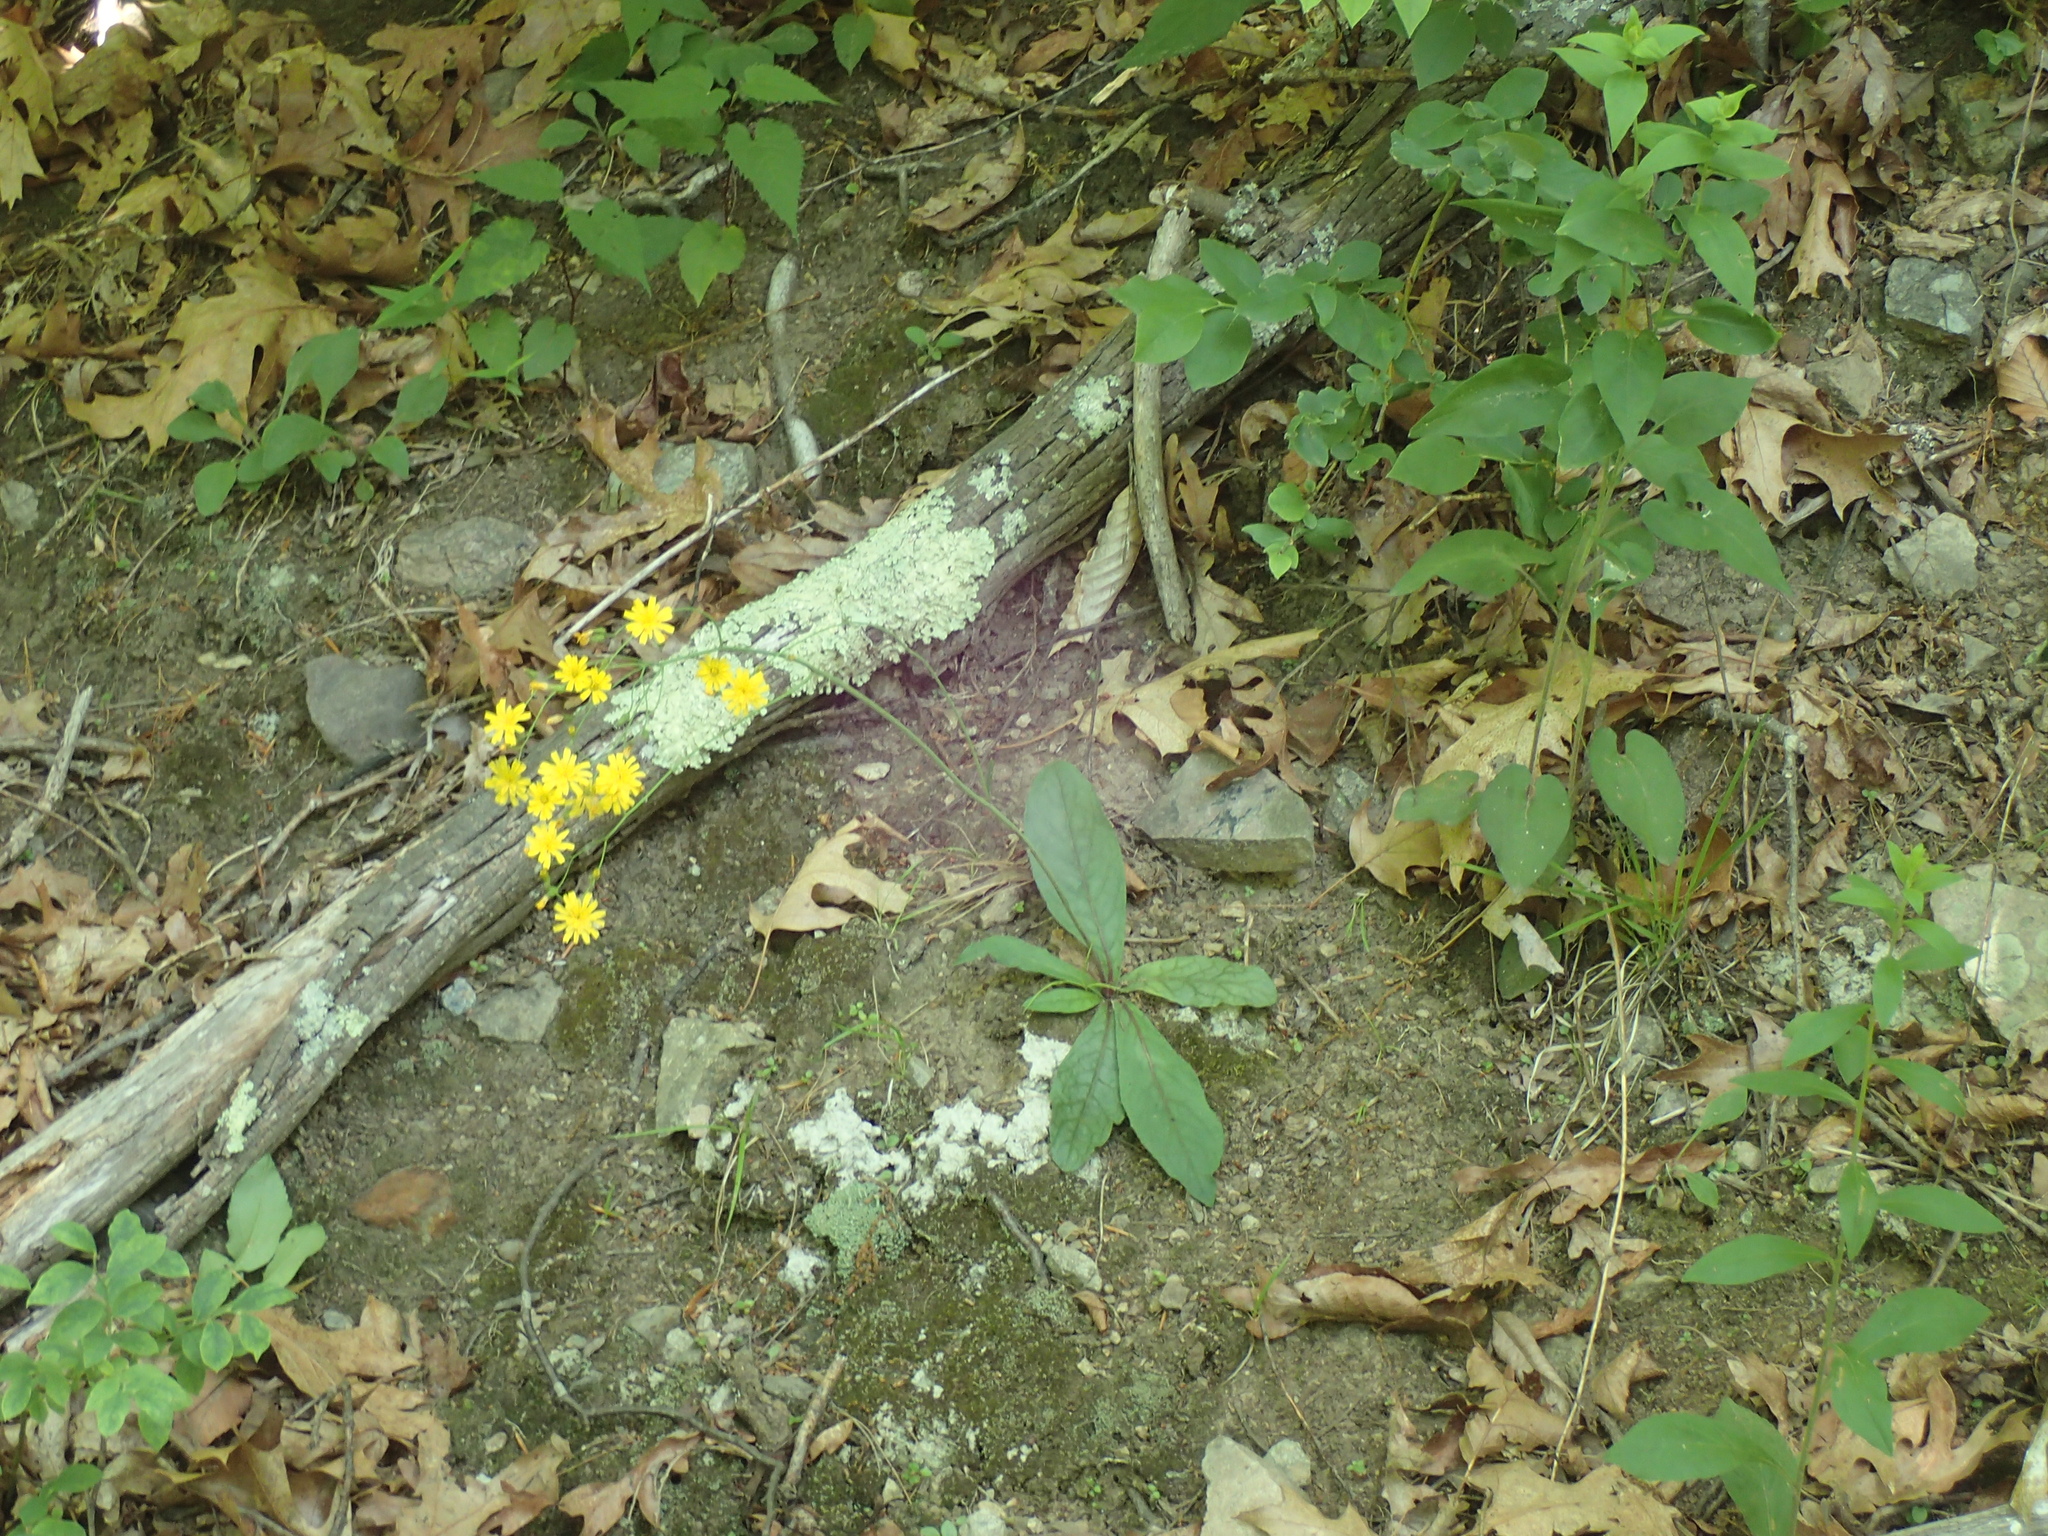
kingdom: Plantae
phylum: Tracheophyta
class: Magnoliopsida
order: Asterales
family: Asteraceae
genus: Hieracium
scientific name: Hieracium venosum
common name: Rattlesnake hawkweed
